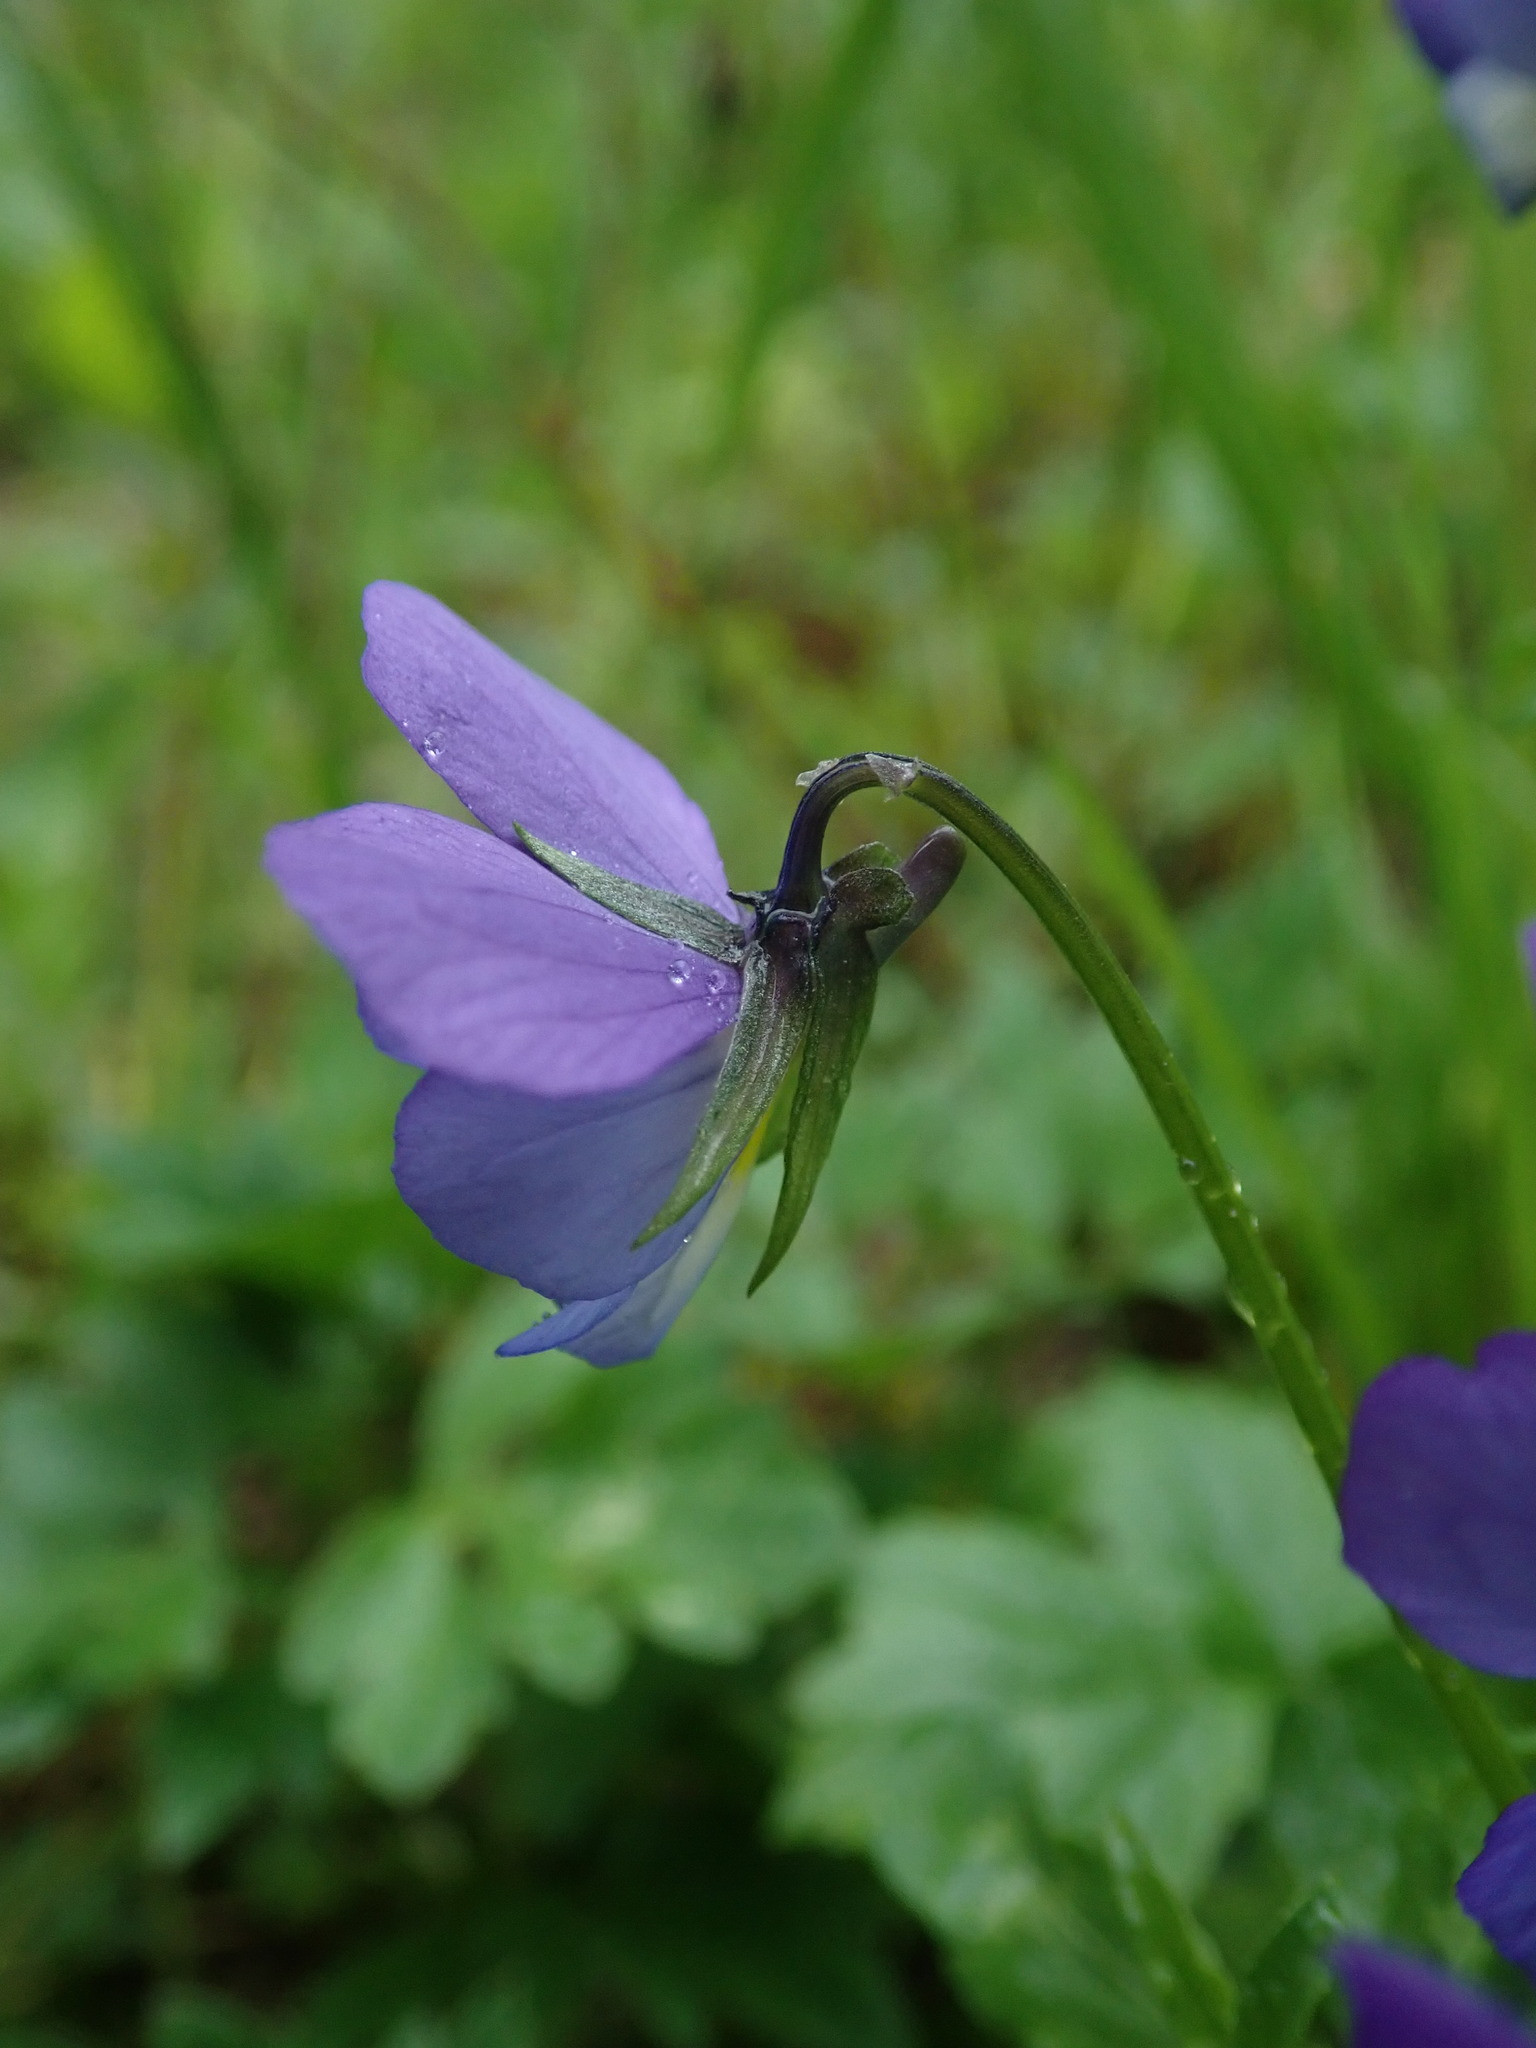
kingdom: Plantae
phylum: Tracheophyta
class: Magnoliopsida
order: Malpighiales
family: Violaceae
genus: Viola
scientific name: Viola tricolor
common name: Pansy
